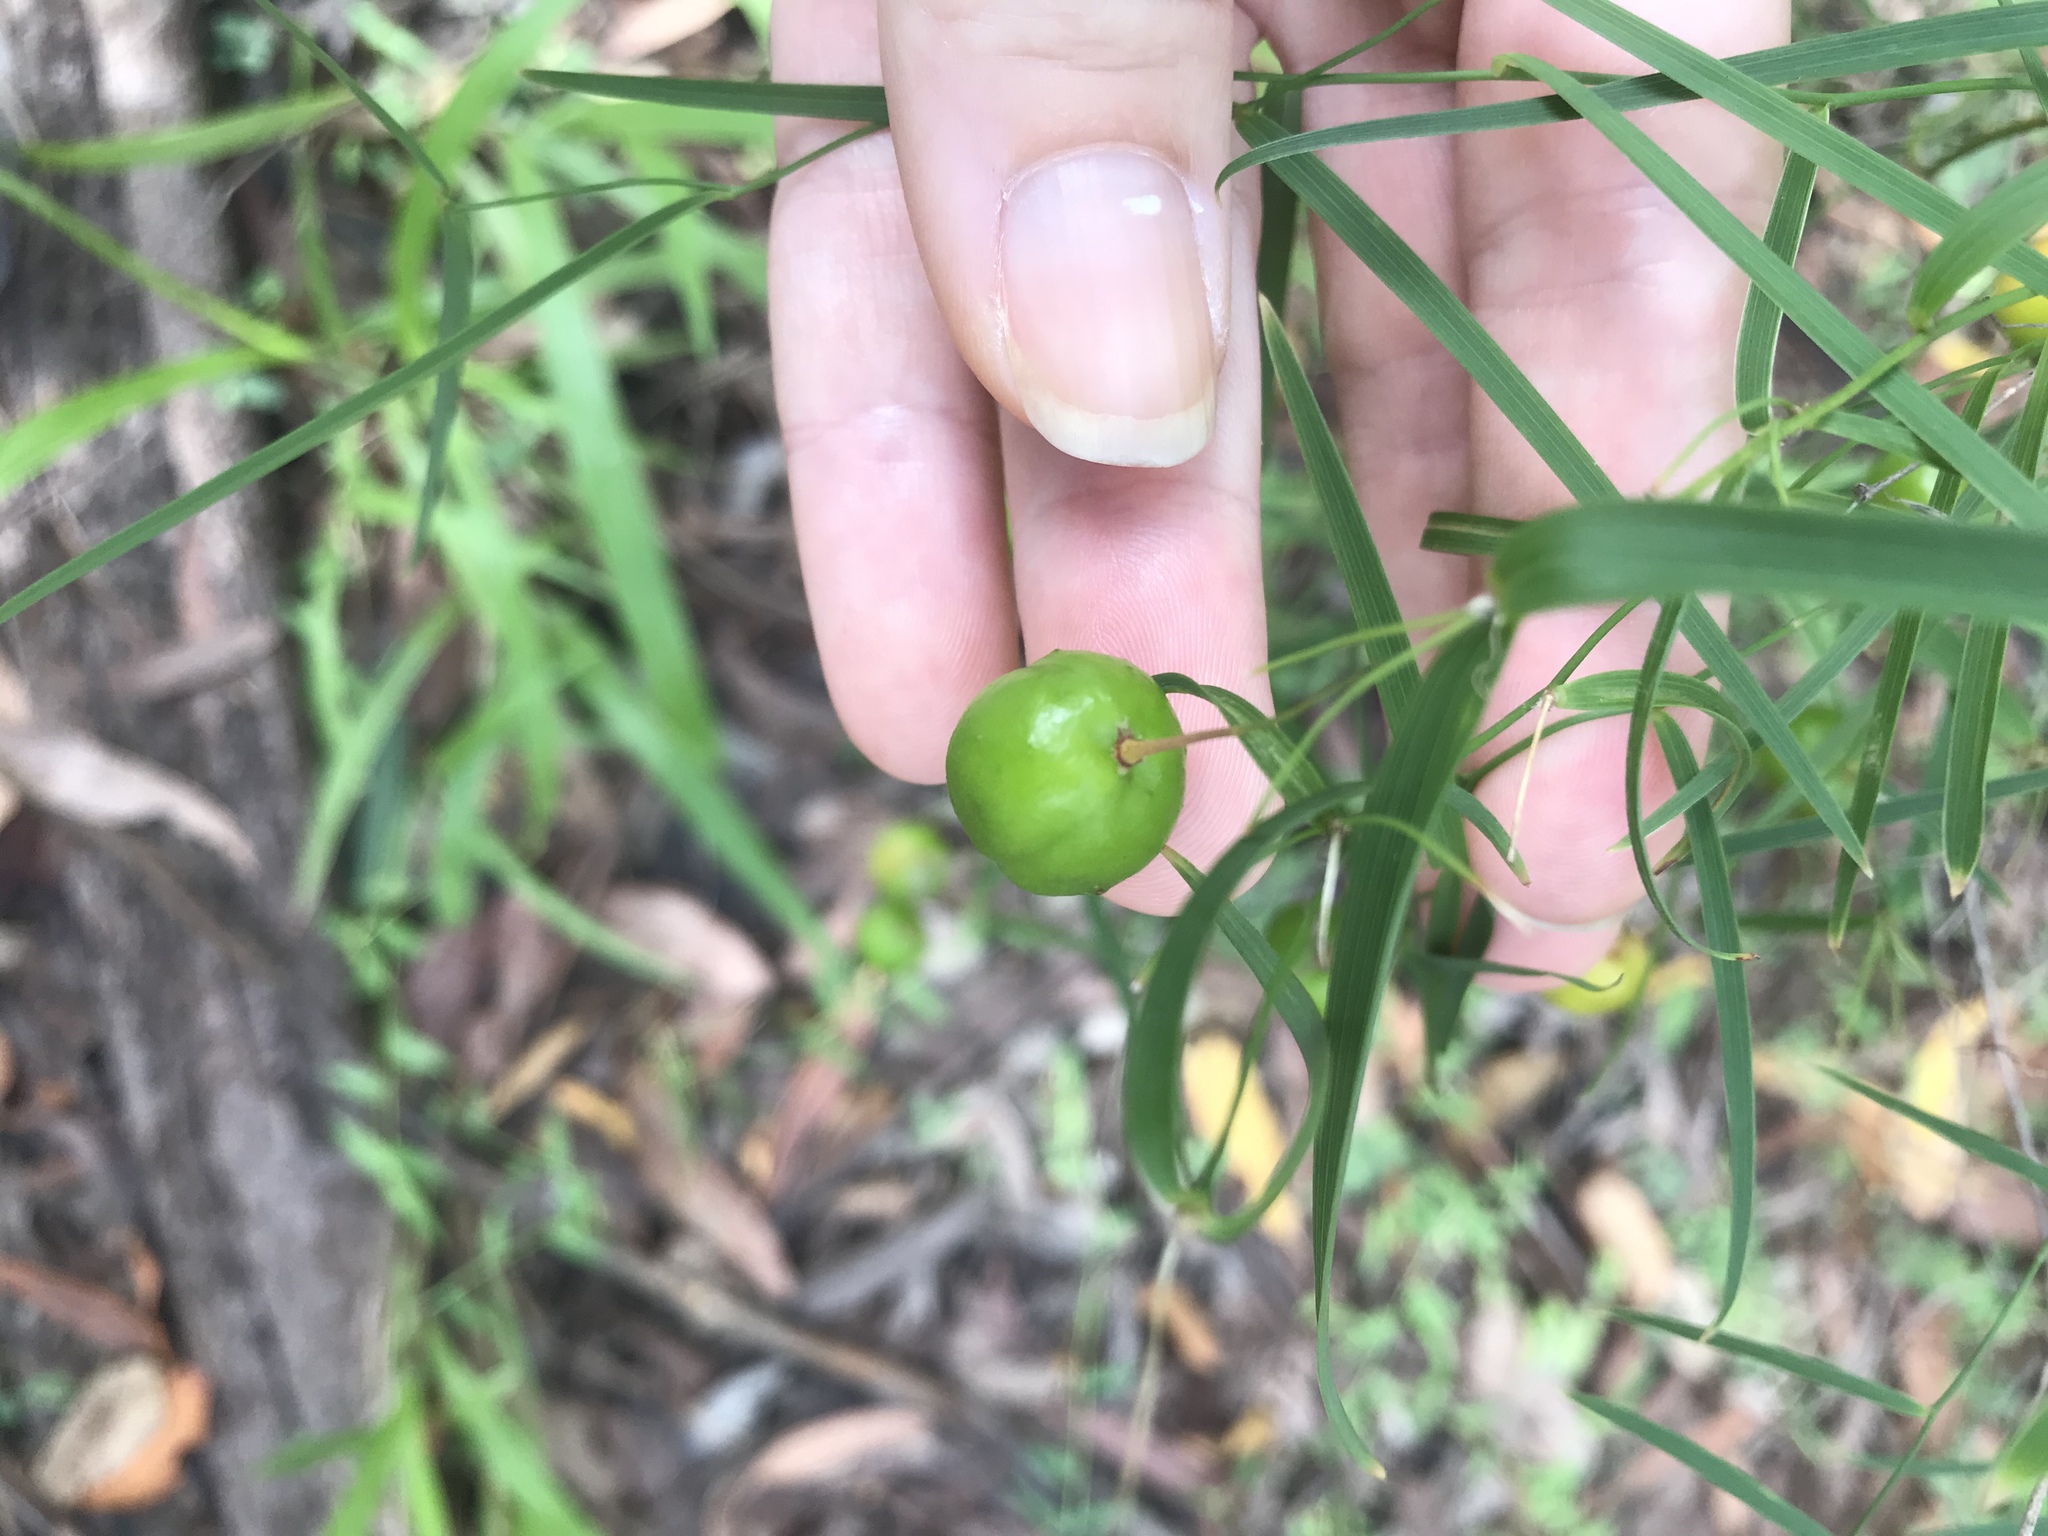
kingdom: Plantae
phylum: Tracheophyta
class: Liliopsida
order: Asparagales
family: Asparagaceae
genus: Eustrephus
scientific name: Eustrephus latifolius
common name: Orangevine
